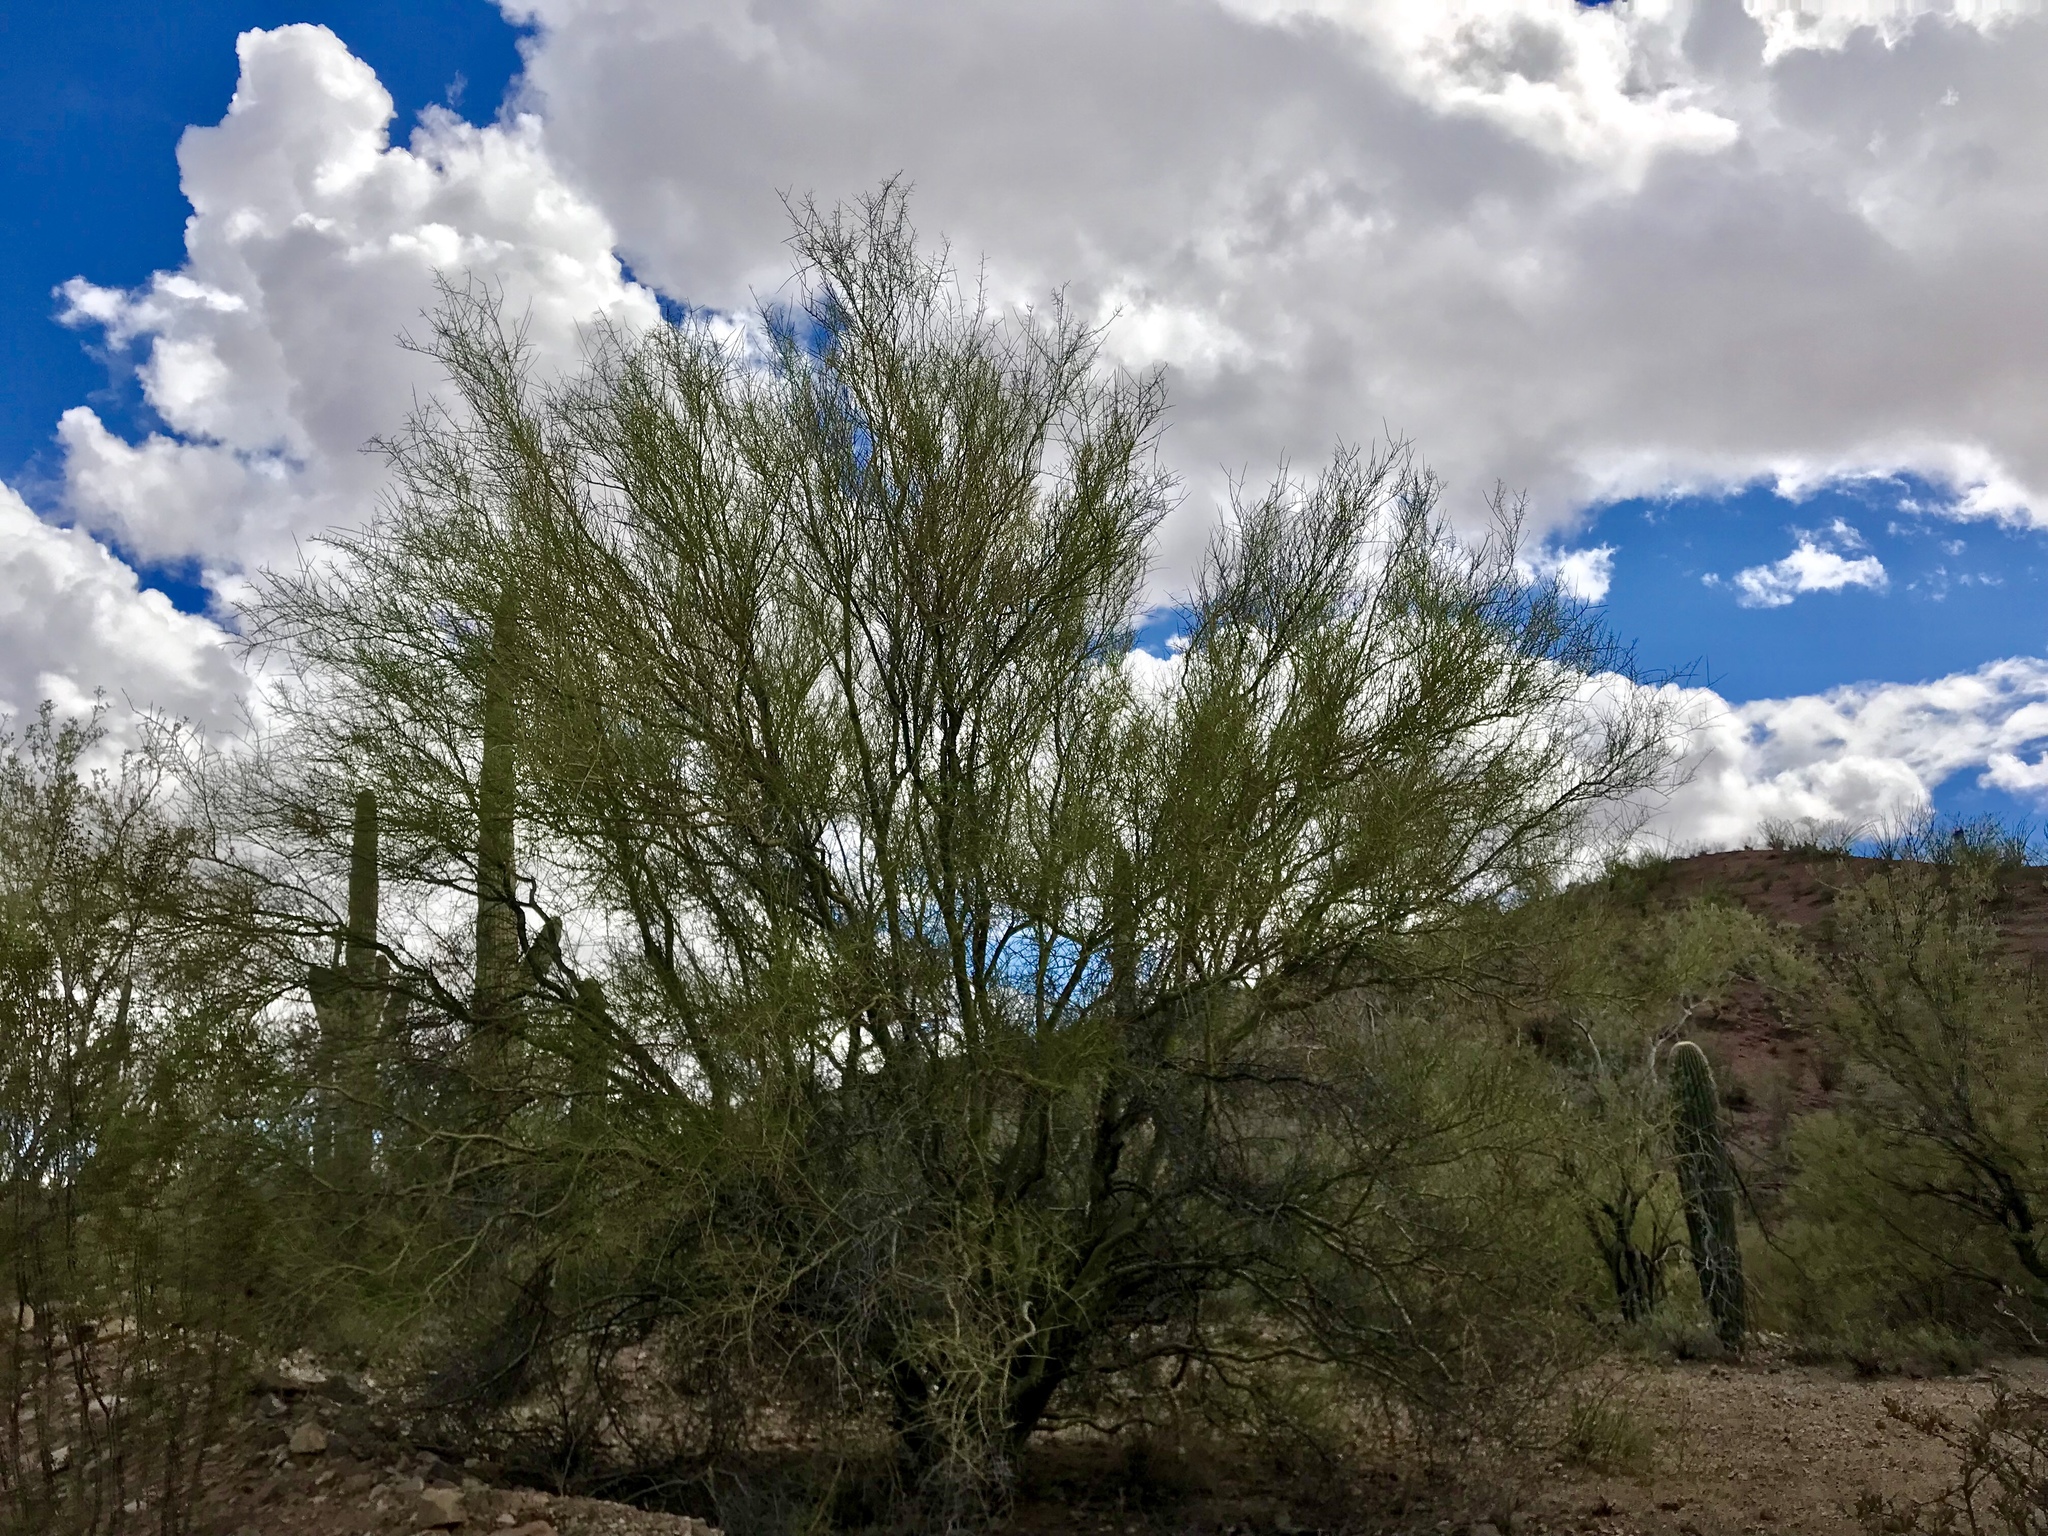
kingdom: Plantae
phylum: Tracheophyta
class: Magnoliopsida
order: Fabales
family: Fabaceae
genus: Parkinsonia
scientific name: Parkinsonia microphylla
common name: Yellow paloverde
